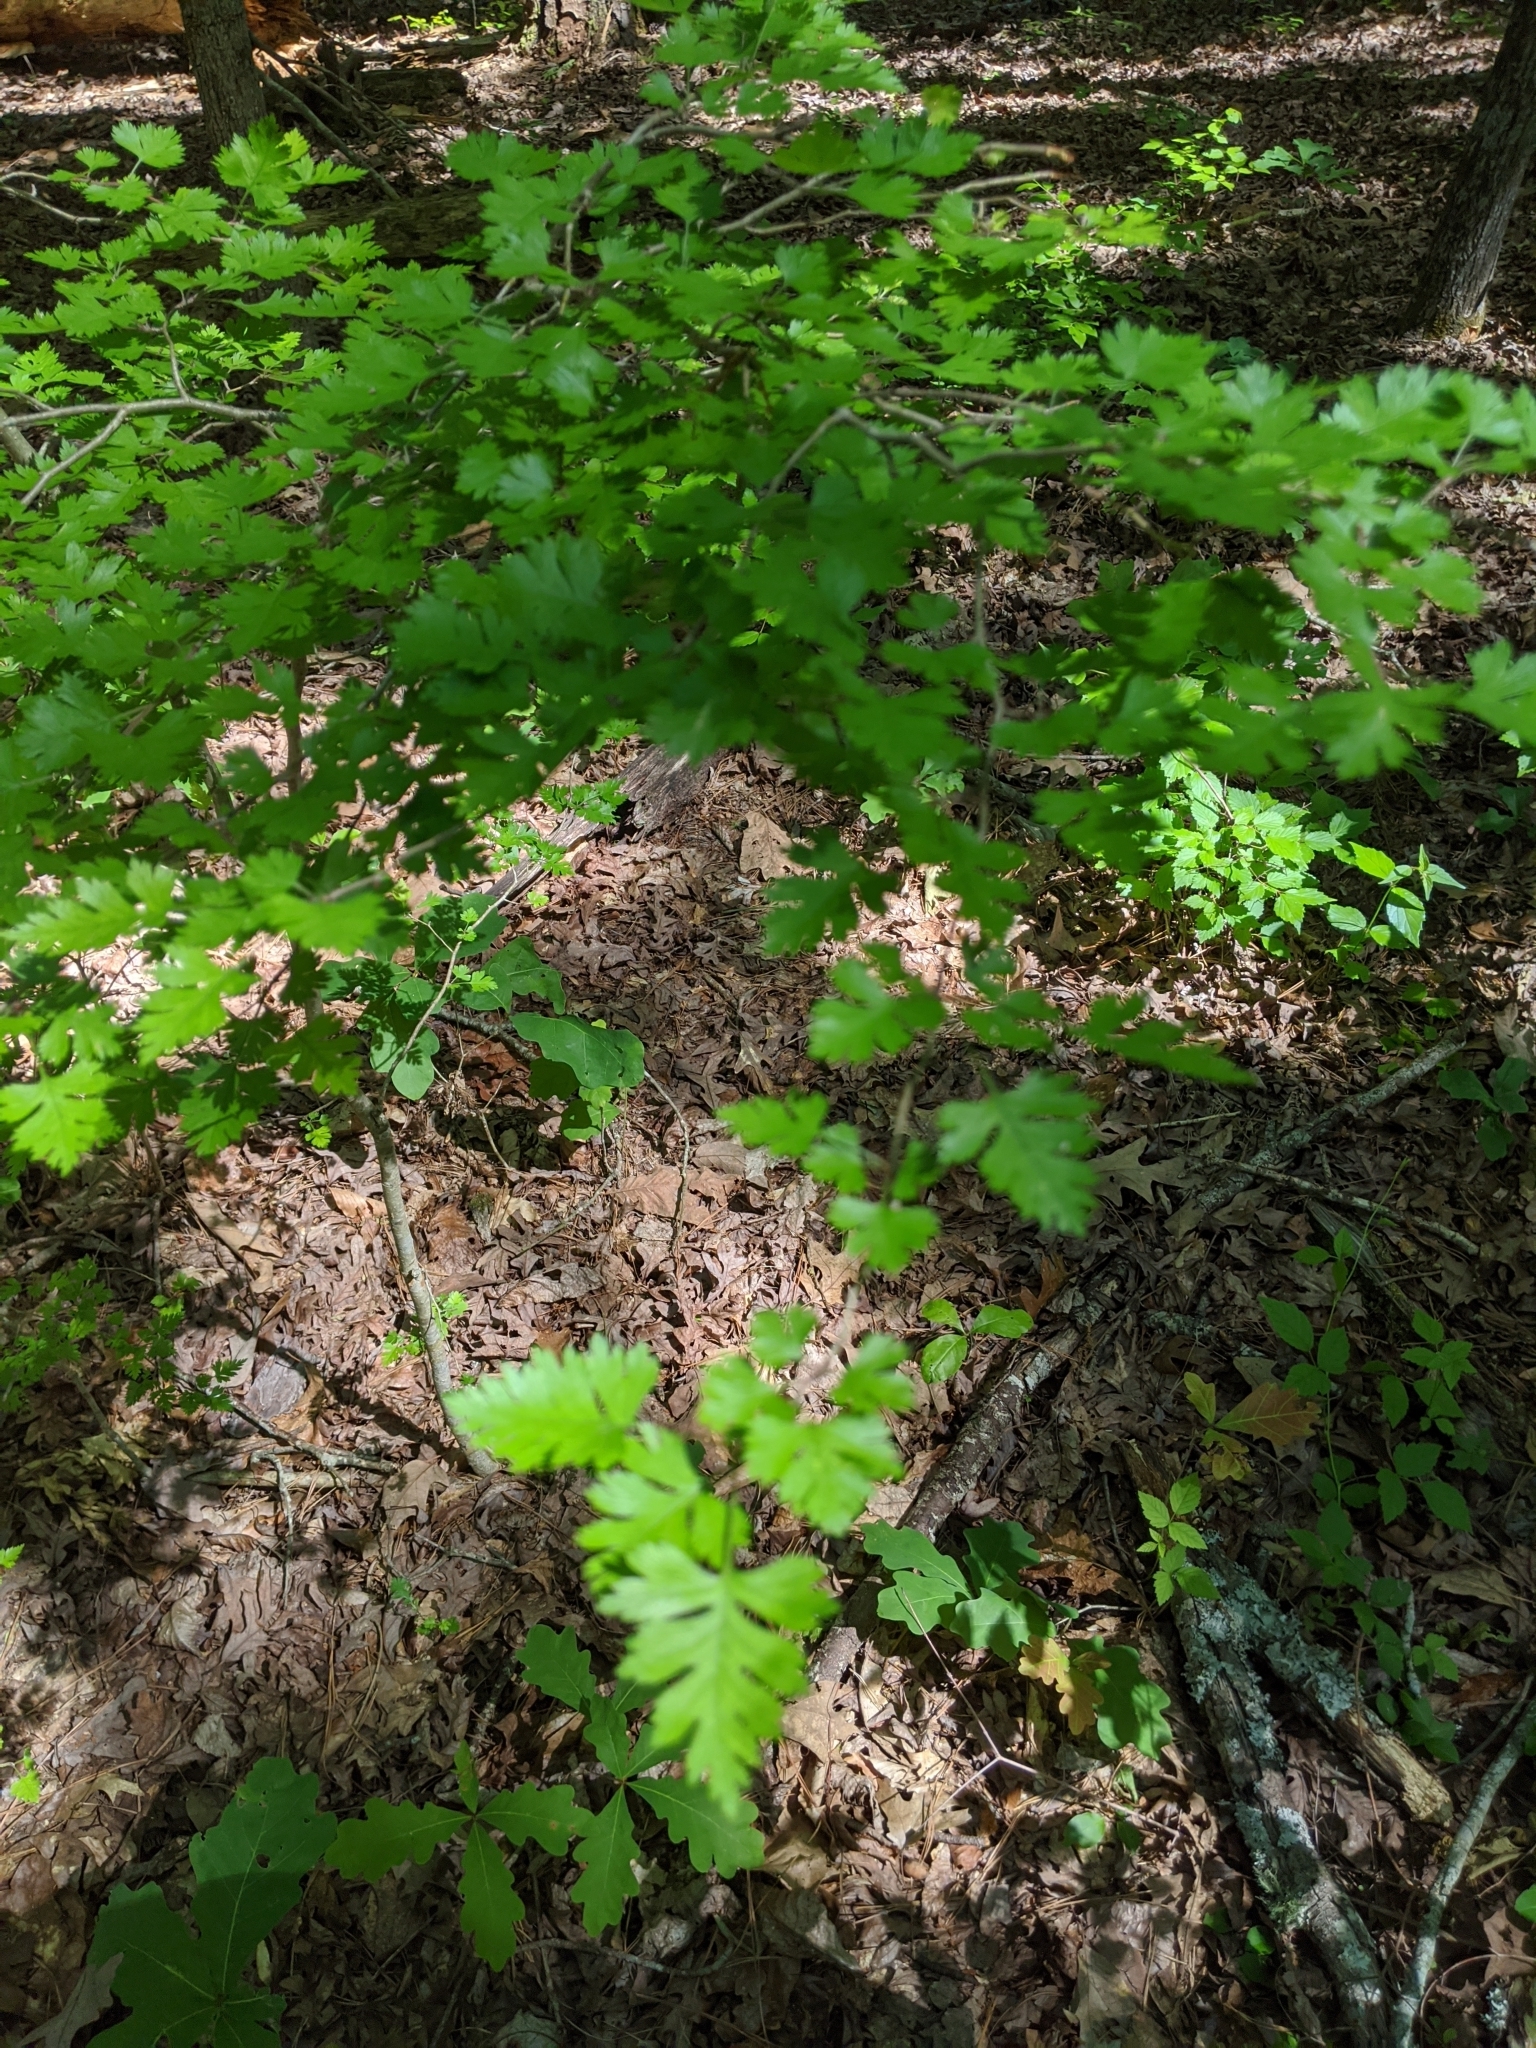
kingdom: Plantae
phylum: Tracheophyta
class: Magnoliopsida
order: Rosales
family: Rosaceae
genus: Crataegus
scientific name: Crataegus marshallii
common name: Parsley-hawthorn
